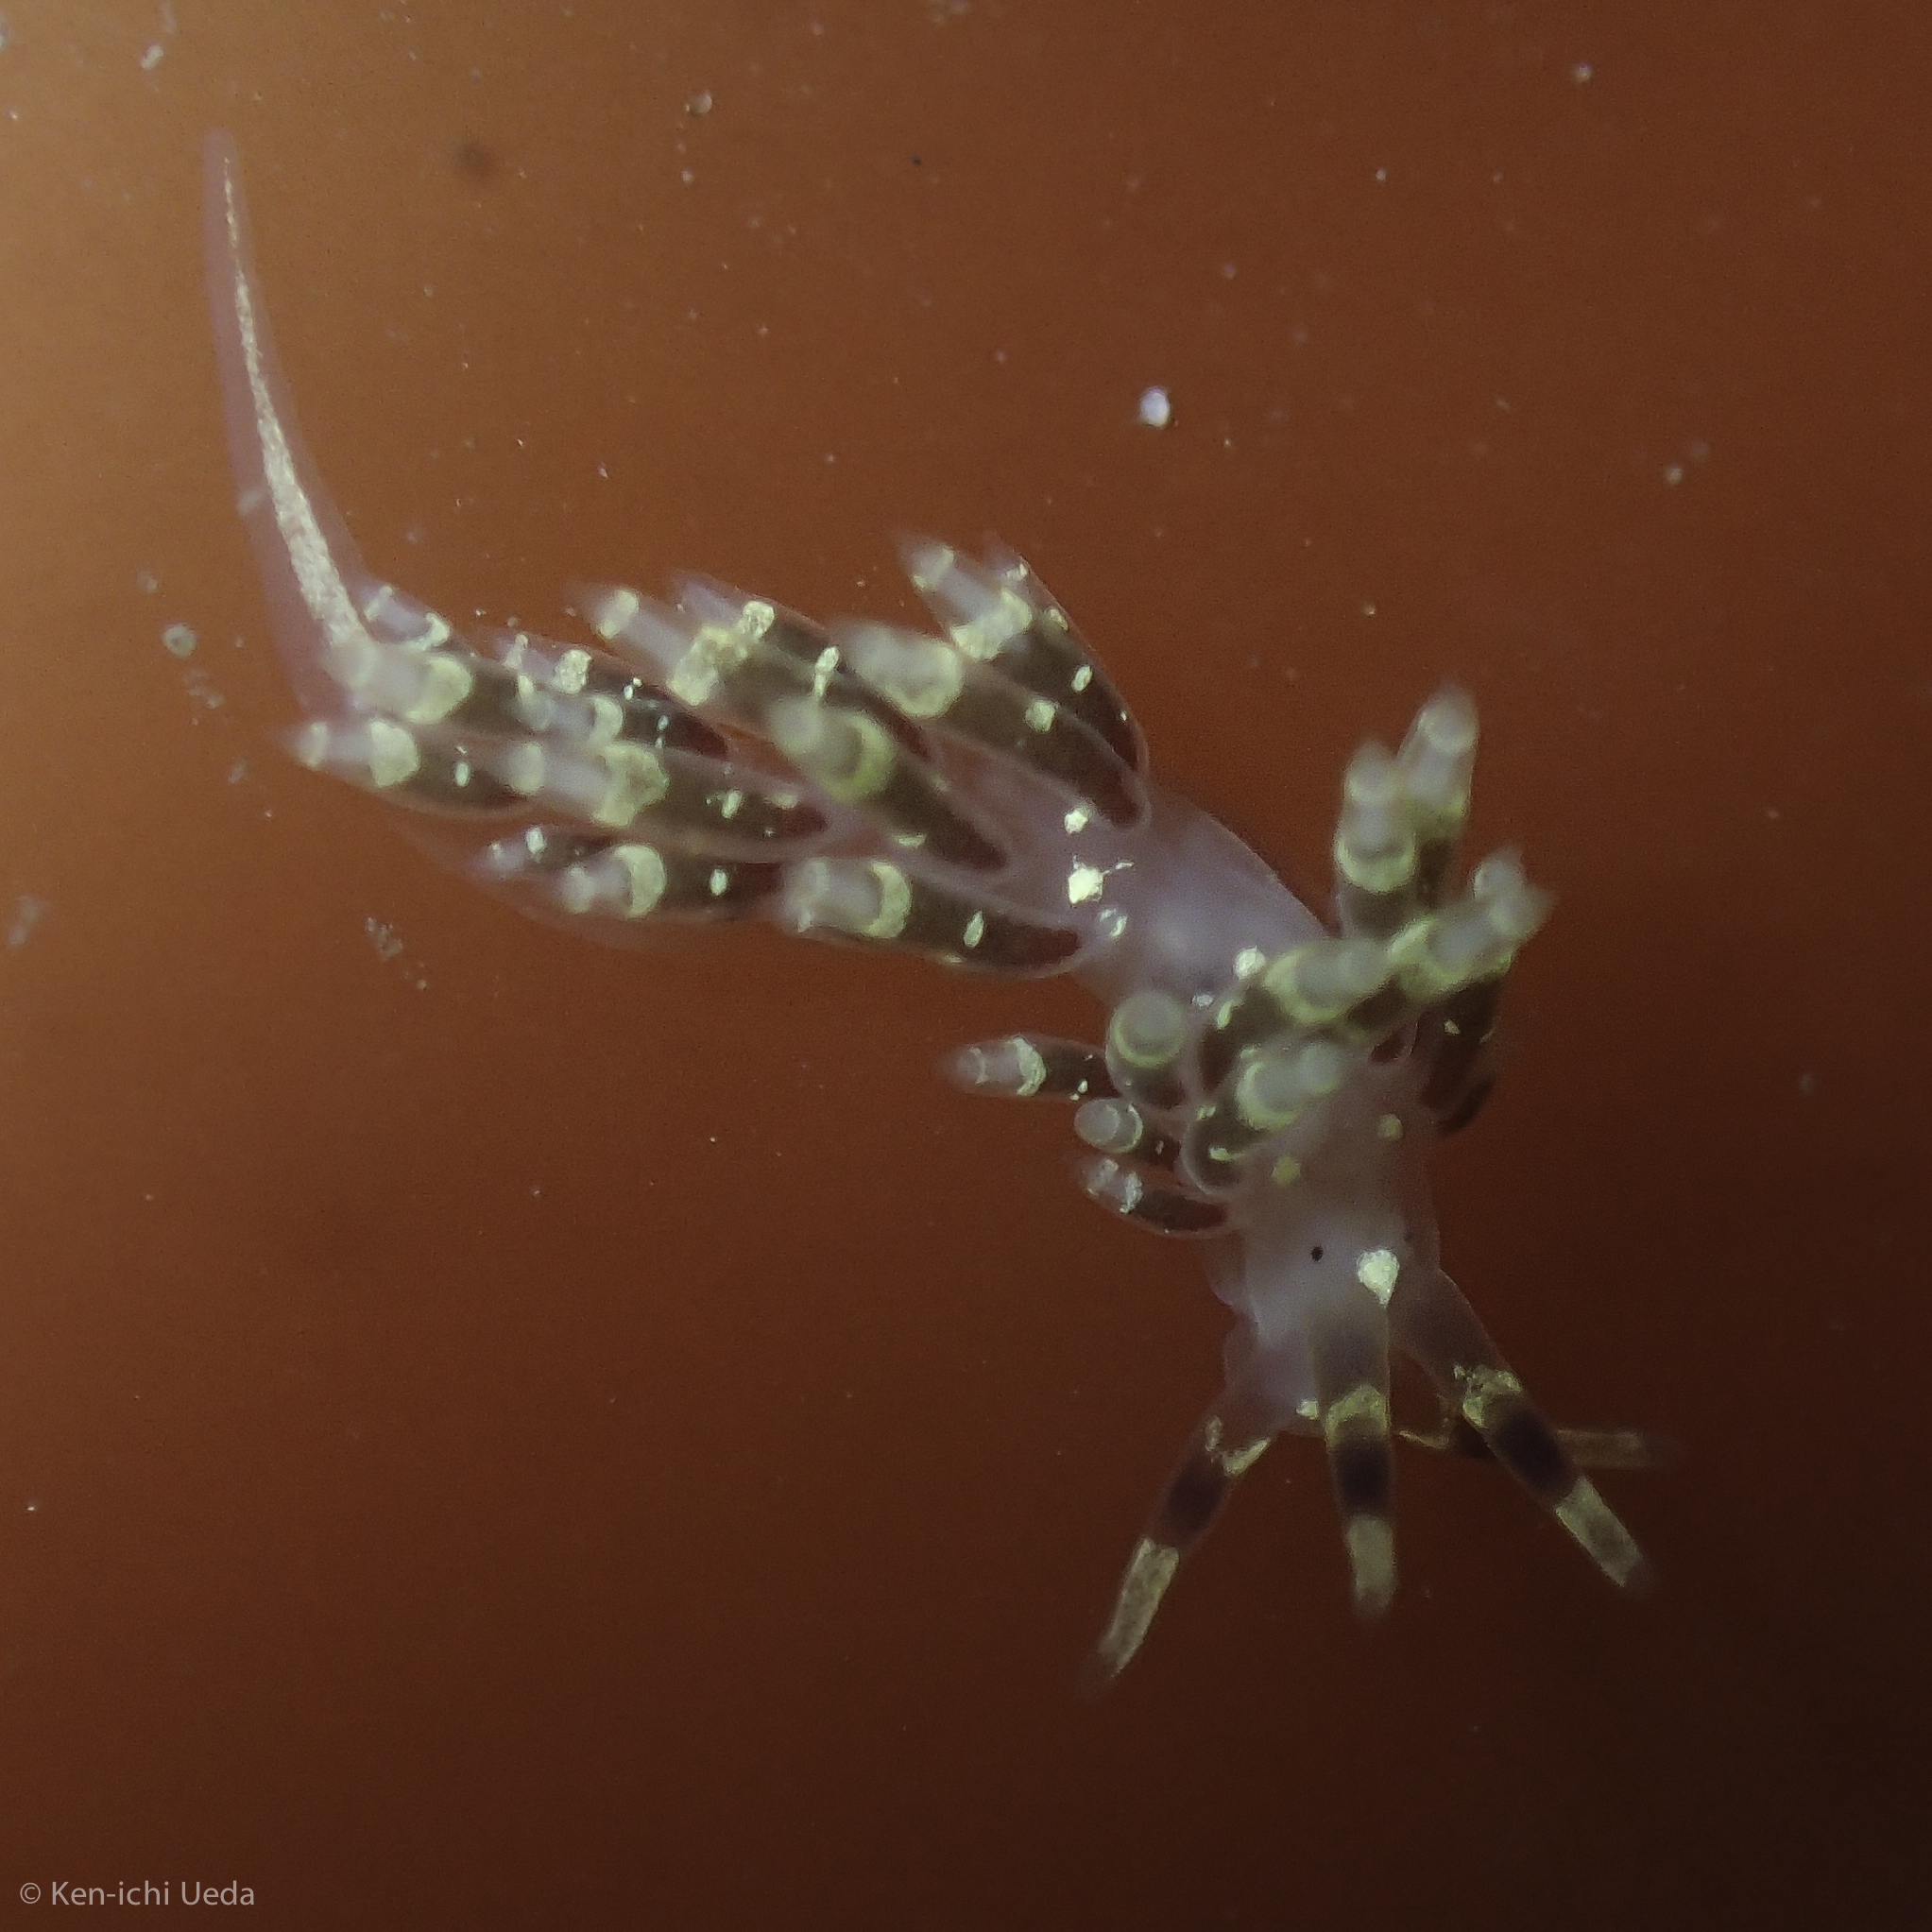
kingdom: Animalia
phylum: Mollusca
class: Gastropoda
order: Nudibranchia
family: Abronicidae
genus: Abronica
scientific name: Abronica abronia
